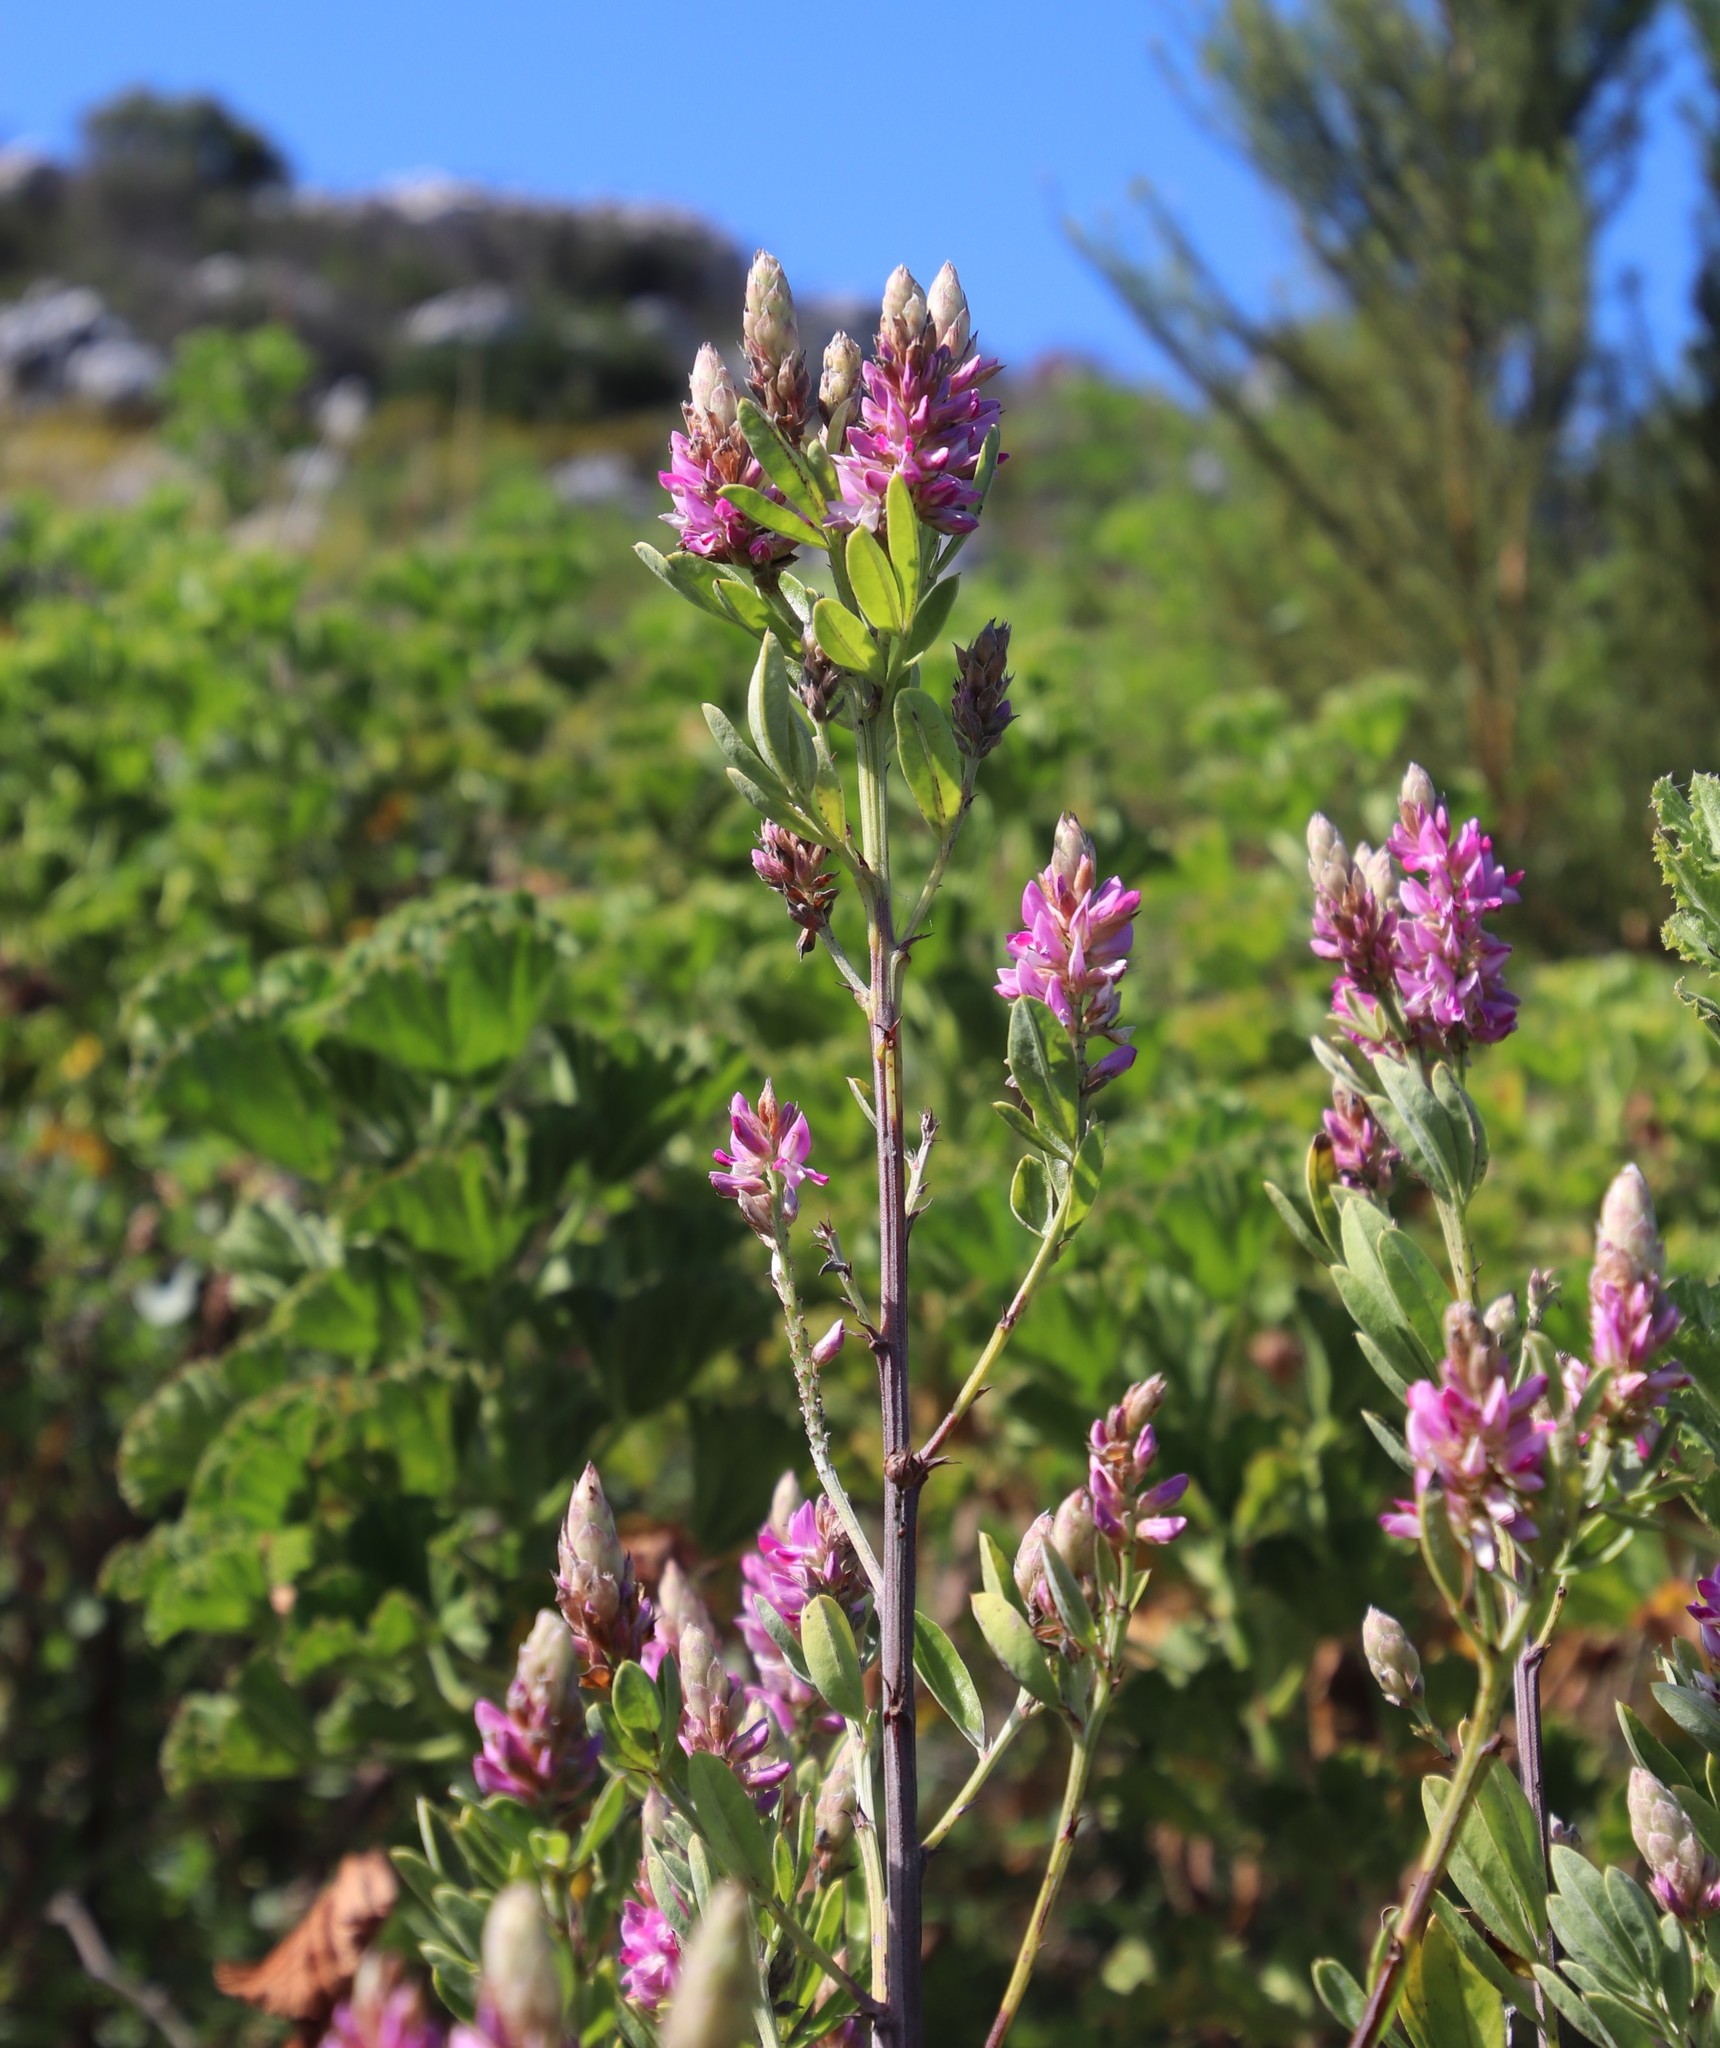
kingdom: Plantae
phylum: Tracheophyta
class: Magnoliopsida
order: Fabales
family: Fabaceae
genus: Indigofera
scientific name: Indigofera cytisoides
